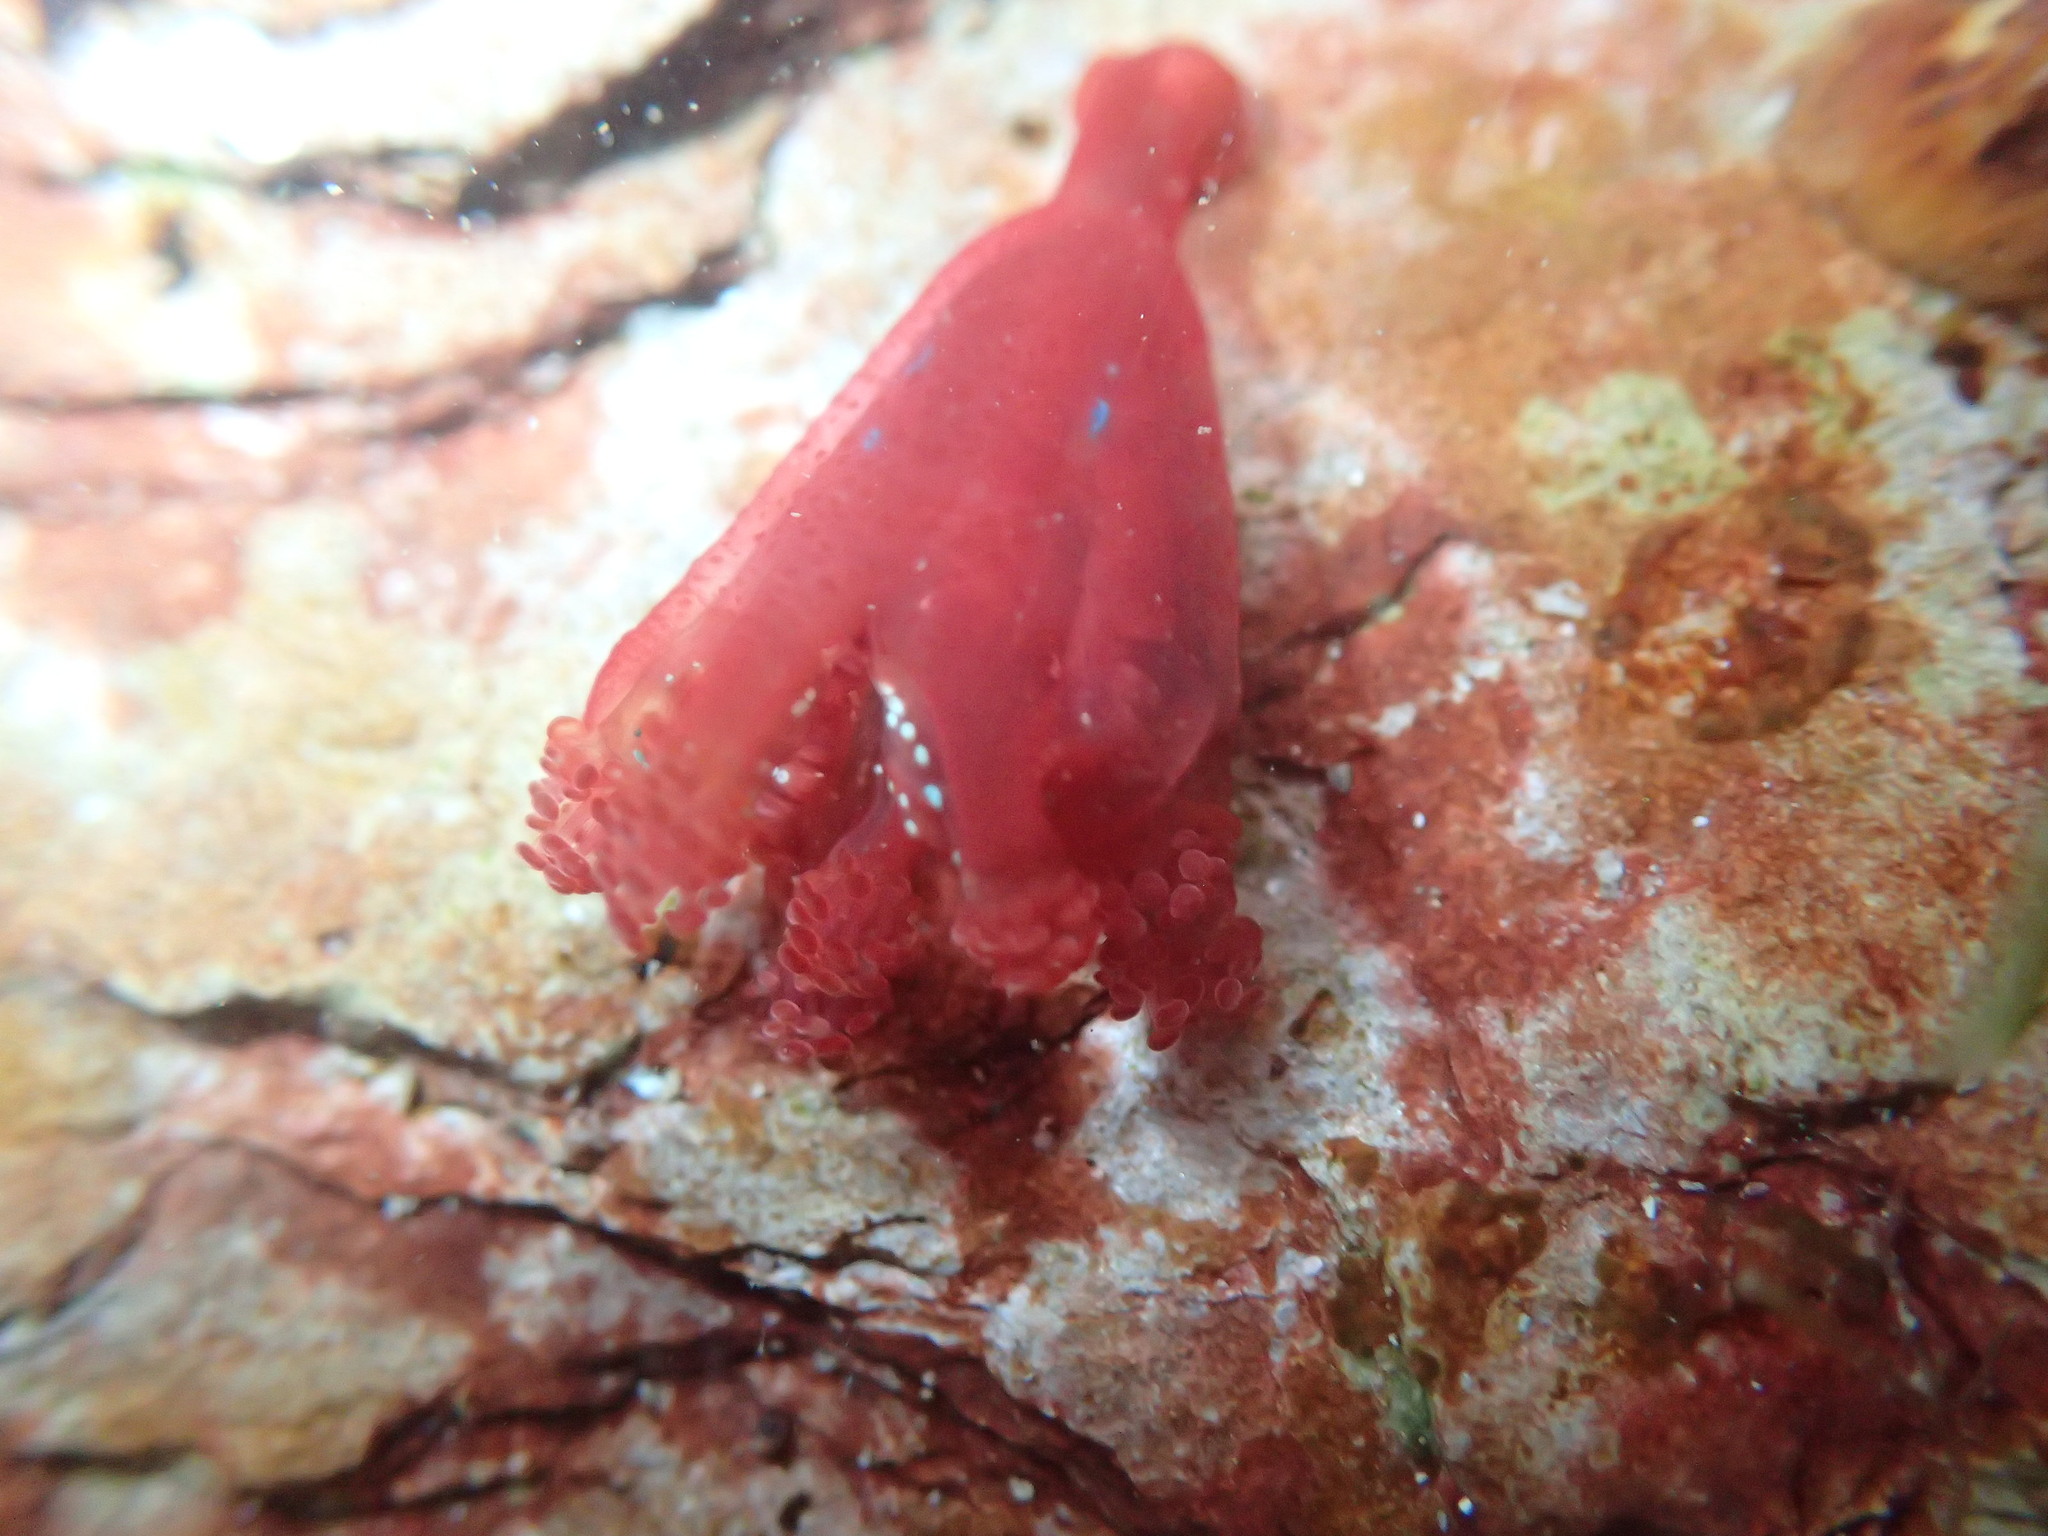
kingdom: Animalia
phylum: Cnidaria
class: Staurozoa
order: Stauromedusae
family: Kishinouyeidae
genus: Calvadosia
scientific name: Calvadosia campanulata
